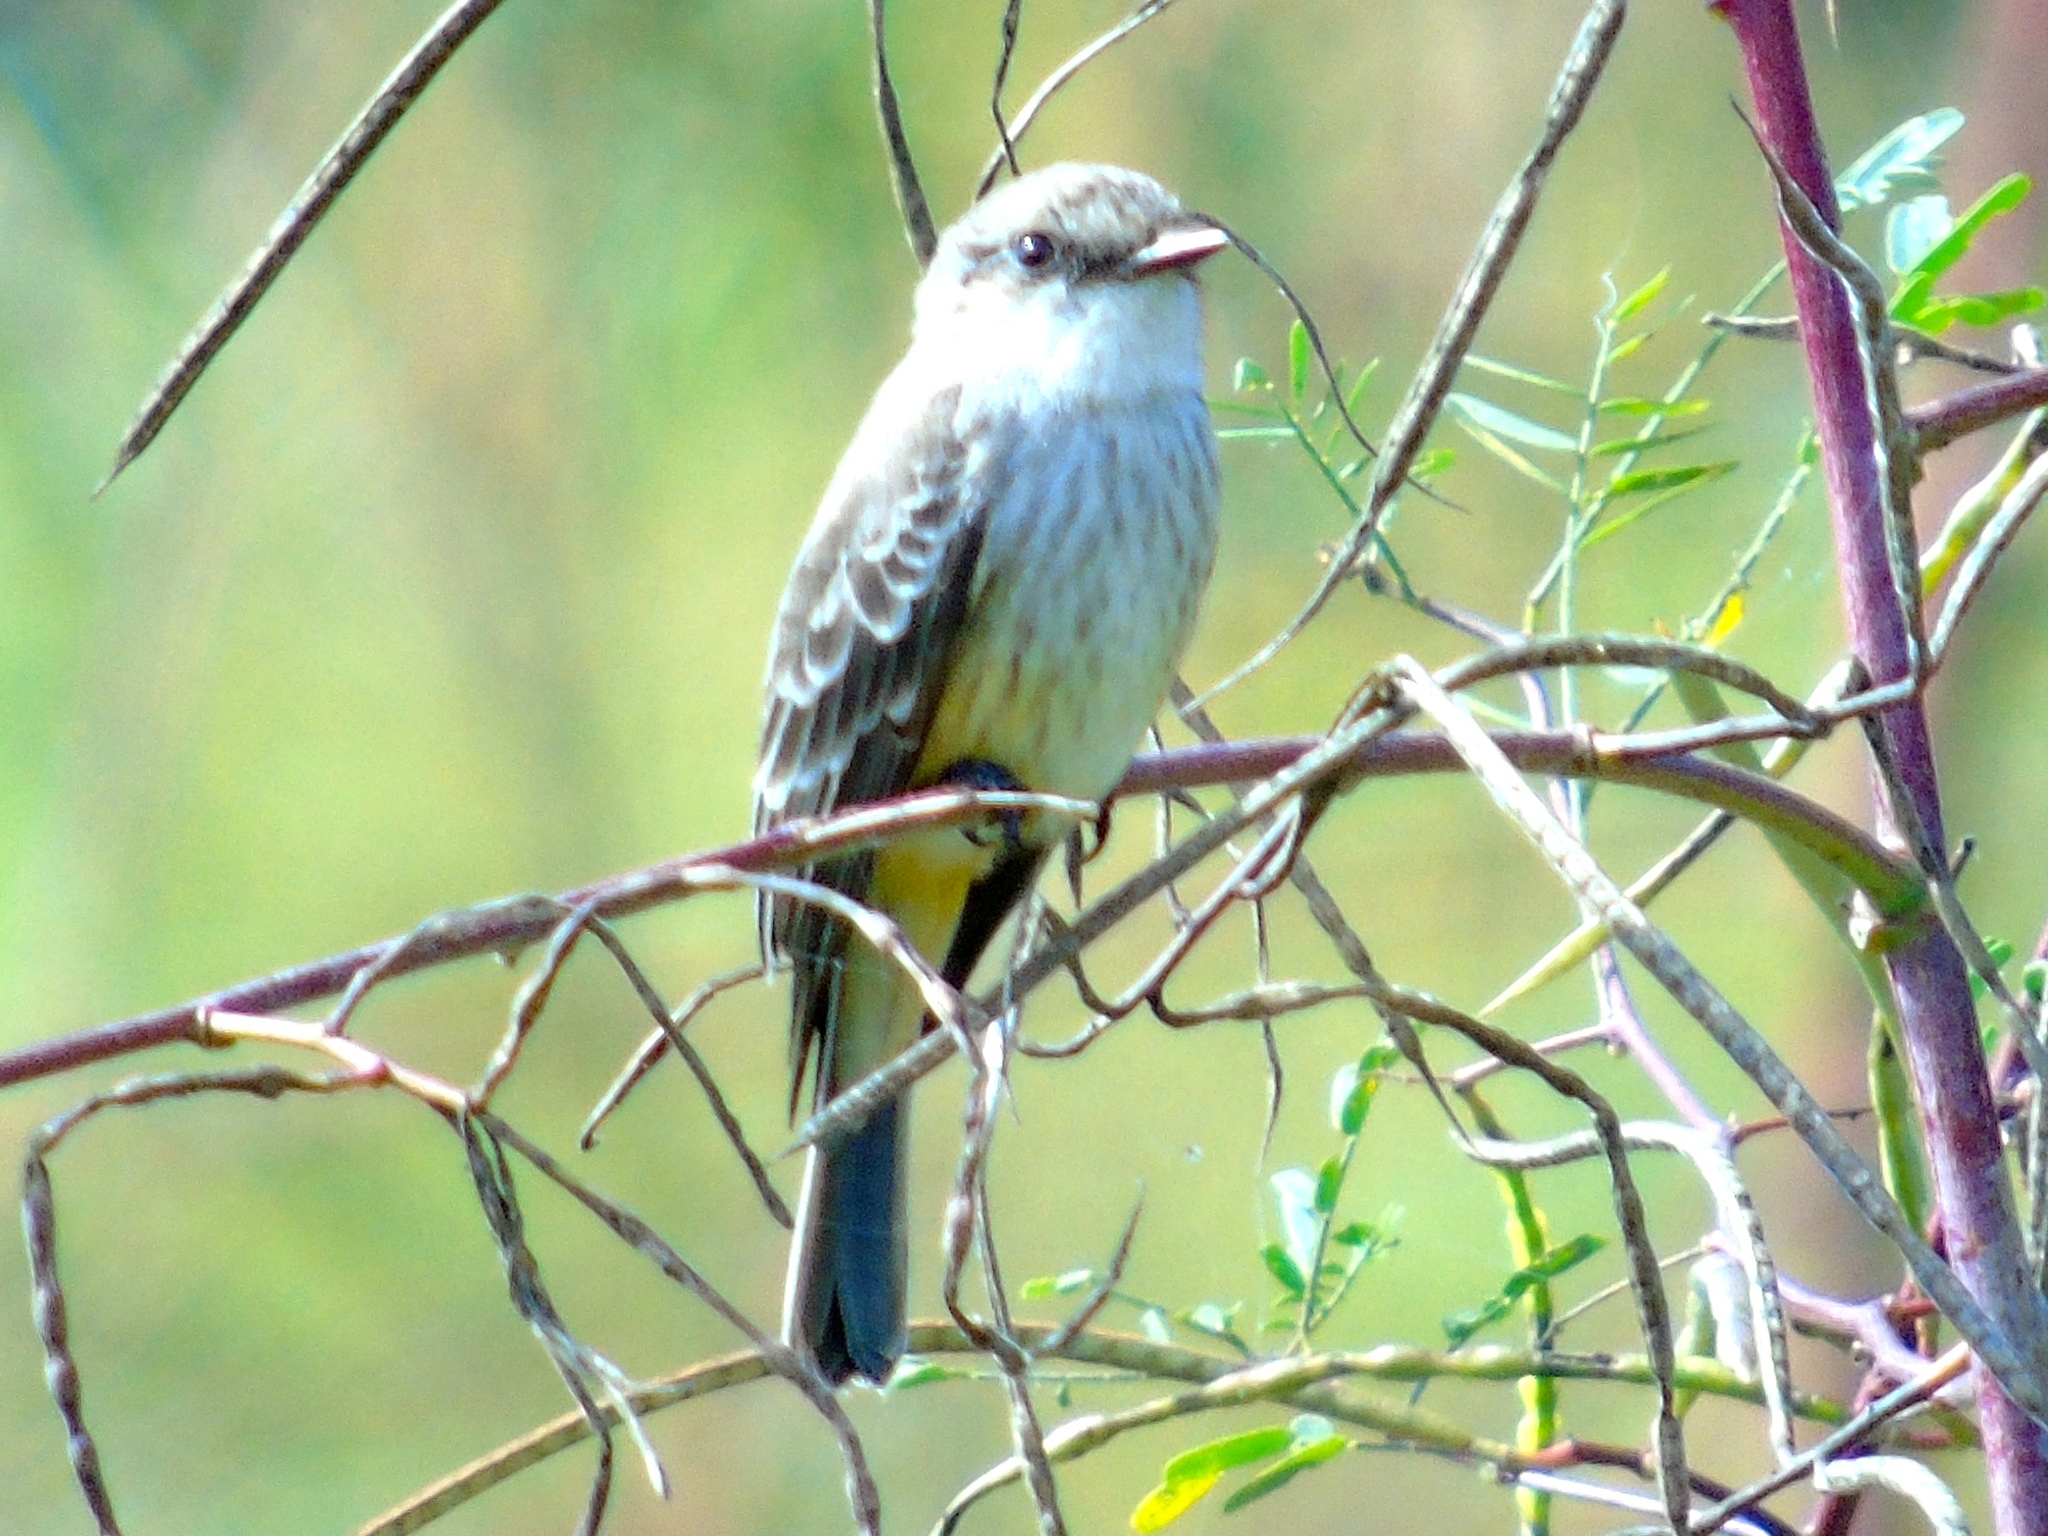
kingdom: Animalia
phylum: Chordata
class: Aves
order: Passeriformes
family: Tyrannidae
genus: Pyrocephalus
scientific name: Pyrocephalus rubinus
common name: Vermilion flycatcher
